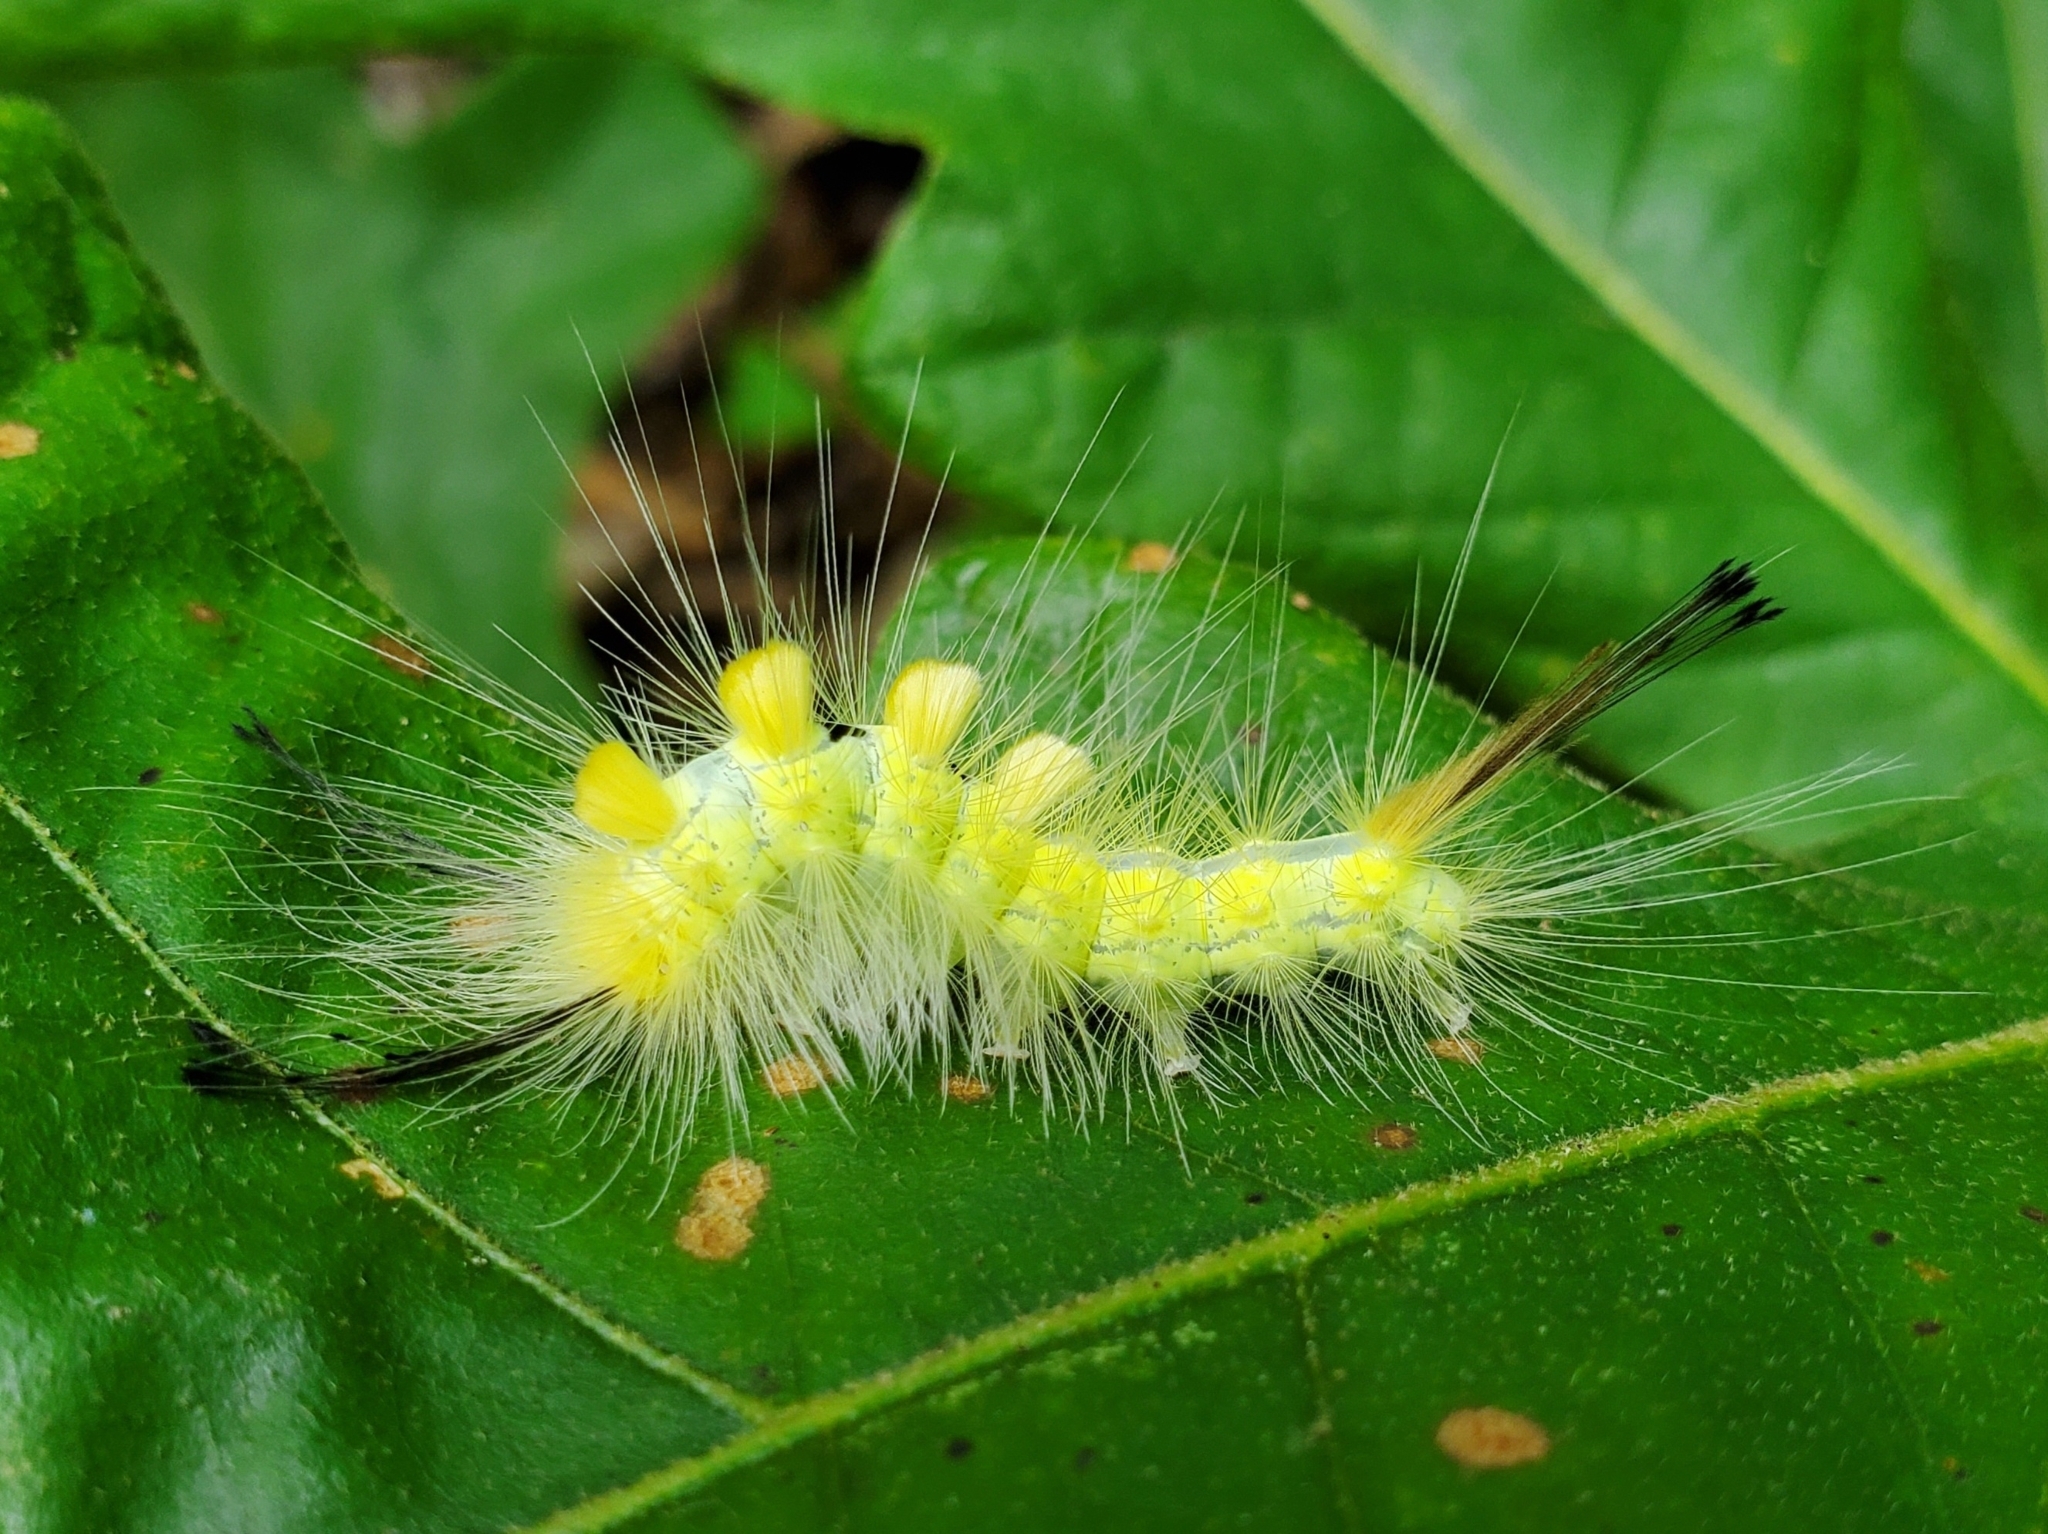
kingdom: Animalia
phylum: Arthropoda
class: Insecta
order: Lepidoptera
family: Erebidae
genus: Orgyia
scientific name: Orgyia definita
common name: Definite tussock moth
